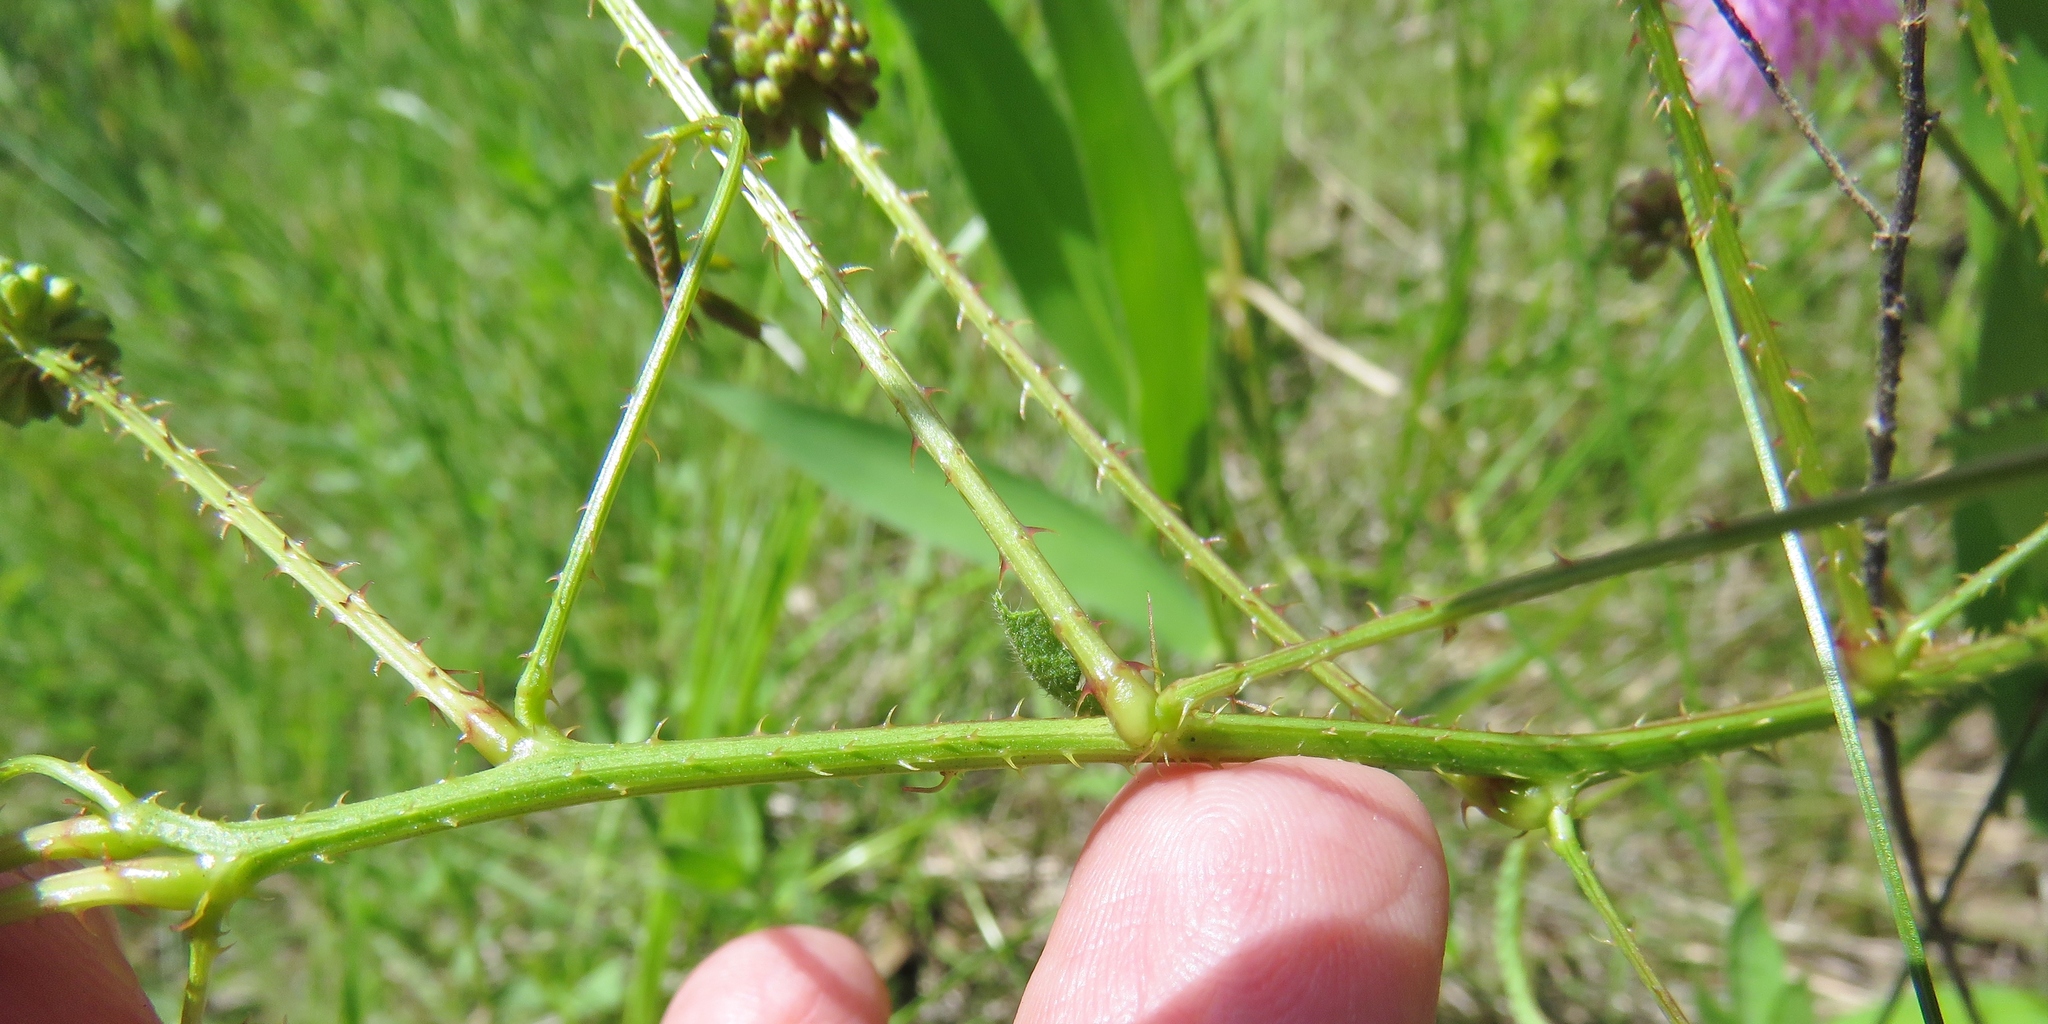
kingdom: Plantae
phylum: Tracheophyta
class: Magnoliopsida
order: Fabales
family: Fabaceae
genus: Mimosa
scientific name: Mimosa quadrivalvis
